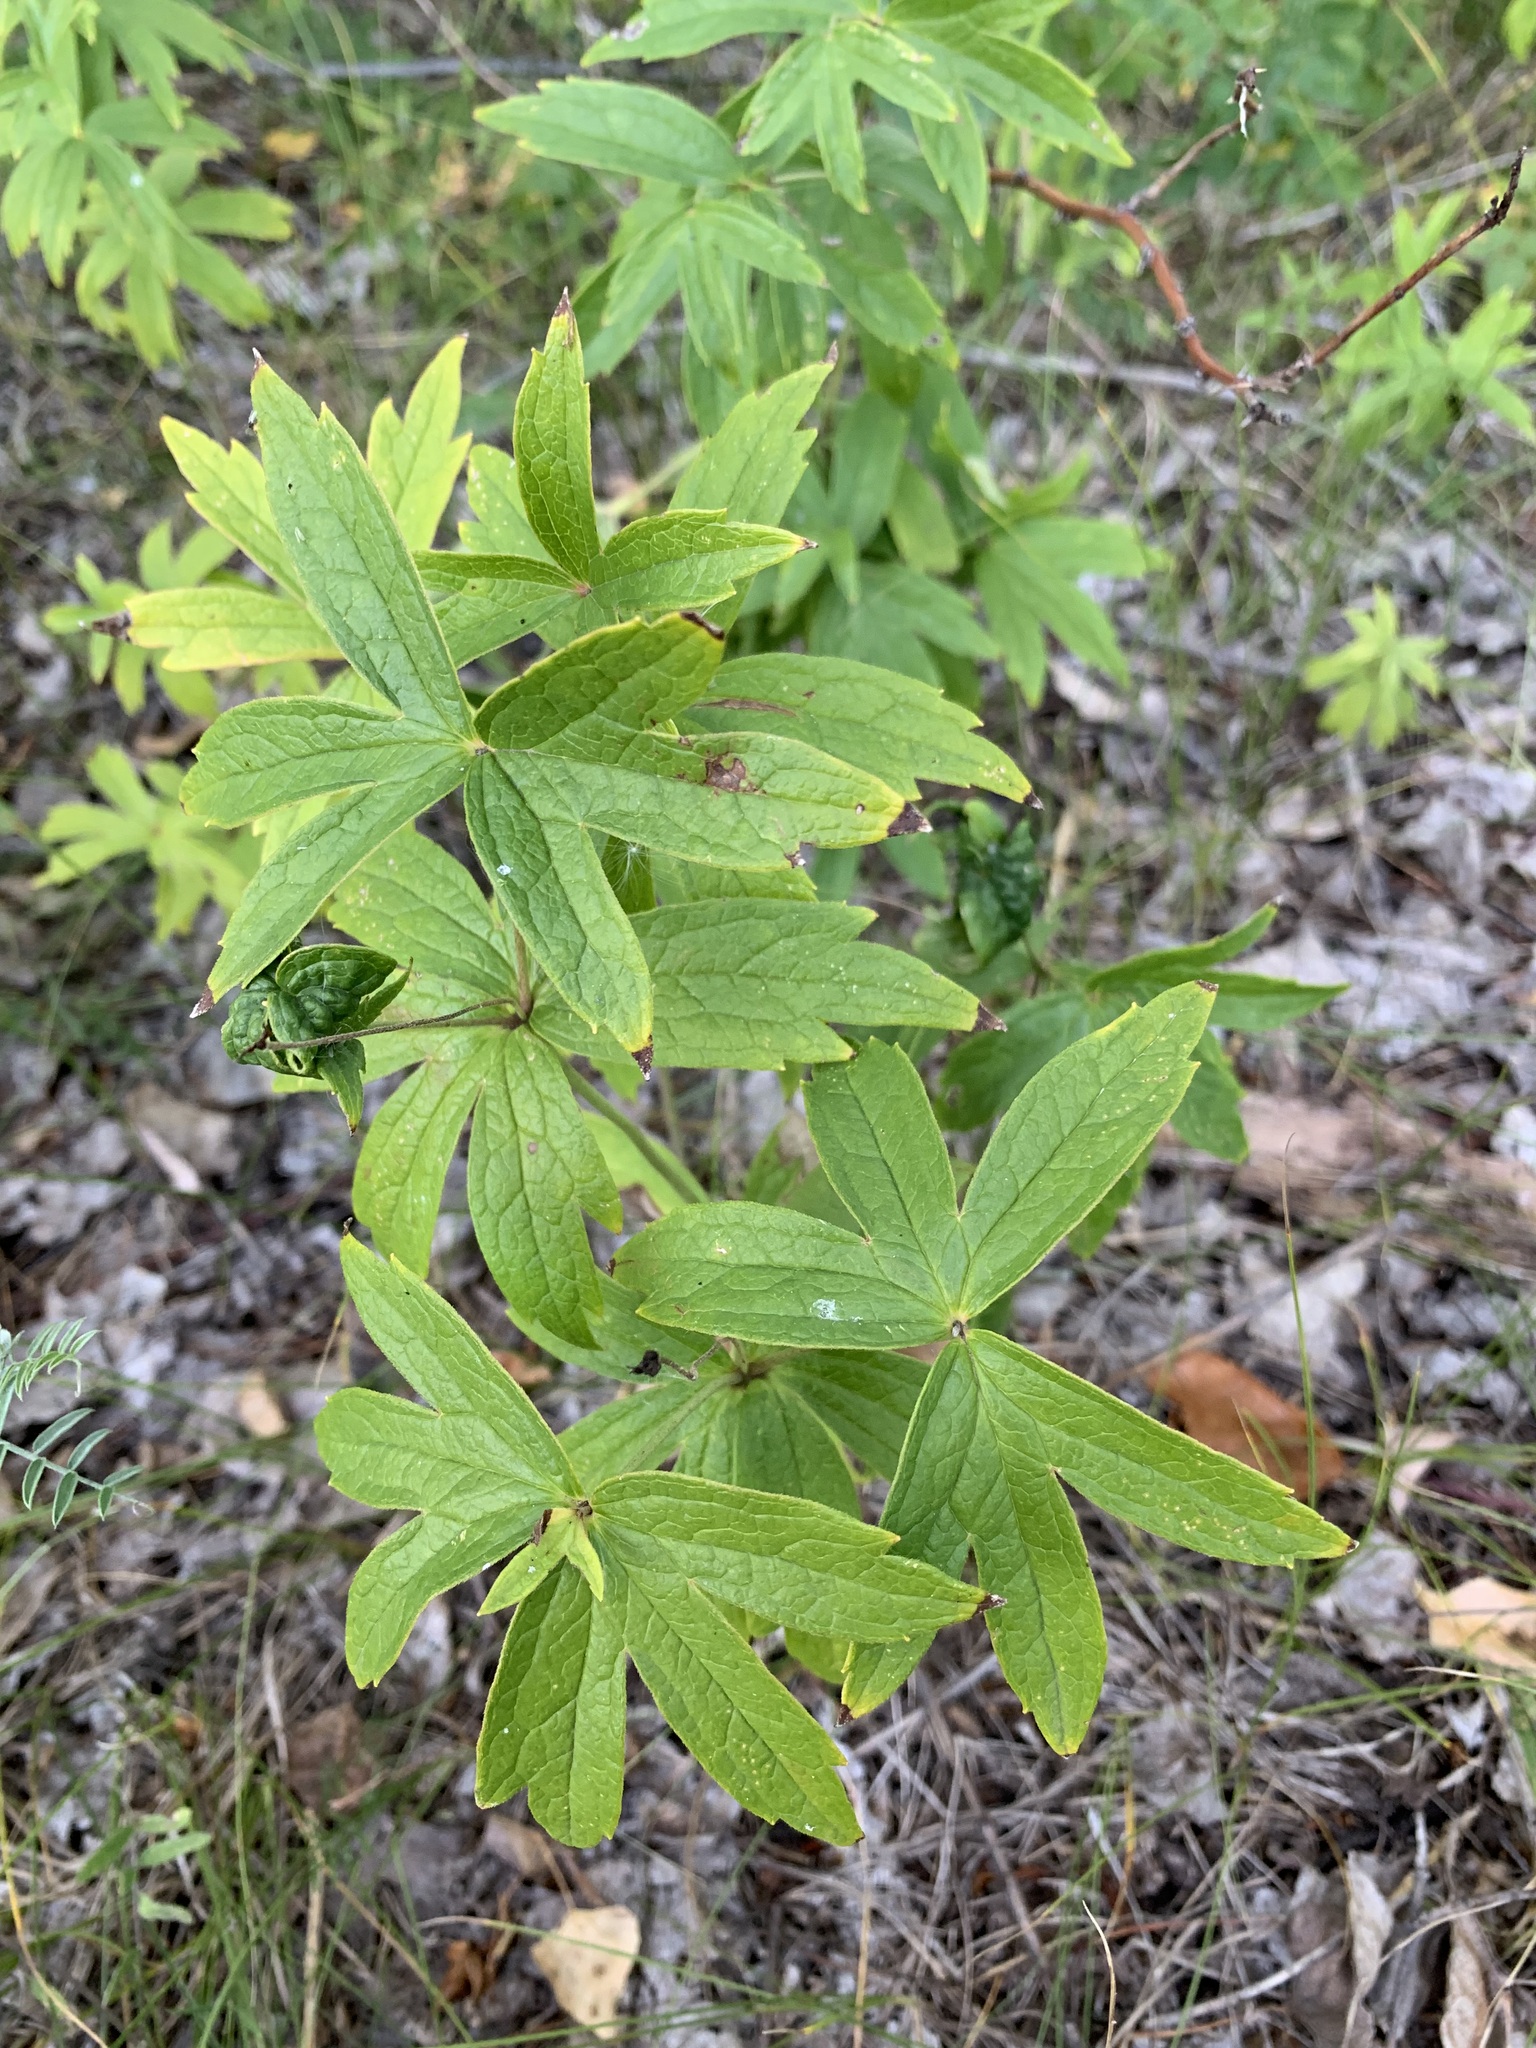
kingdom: Plantae
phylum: Tracheophyta
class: Magnoliopsida
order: Ranunculales
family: Ranunculaceae
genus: Anemonastrum
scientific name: Anemonastrum dichotomum
